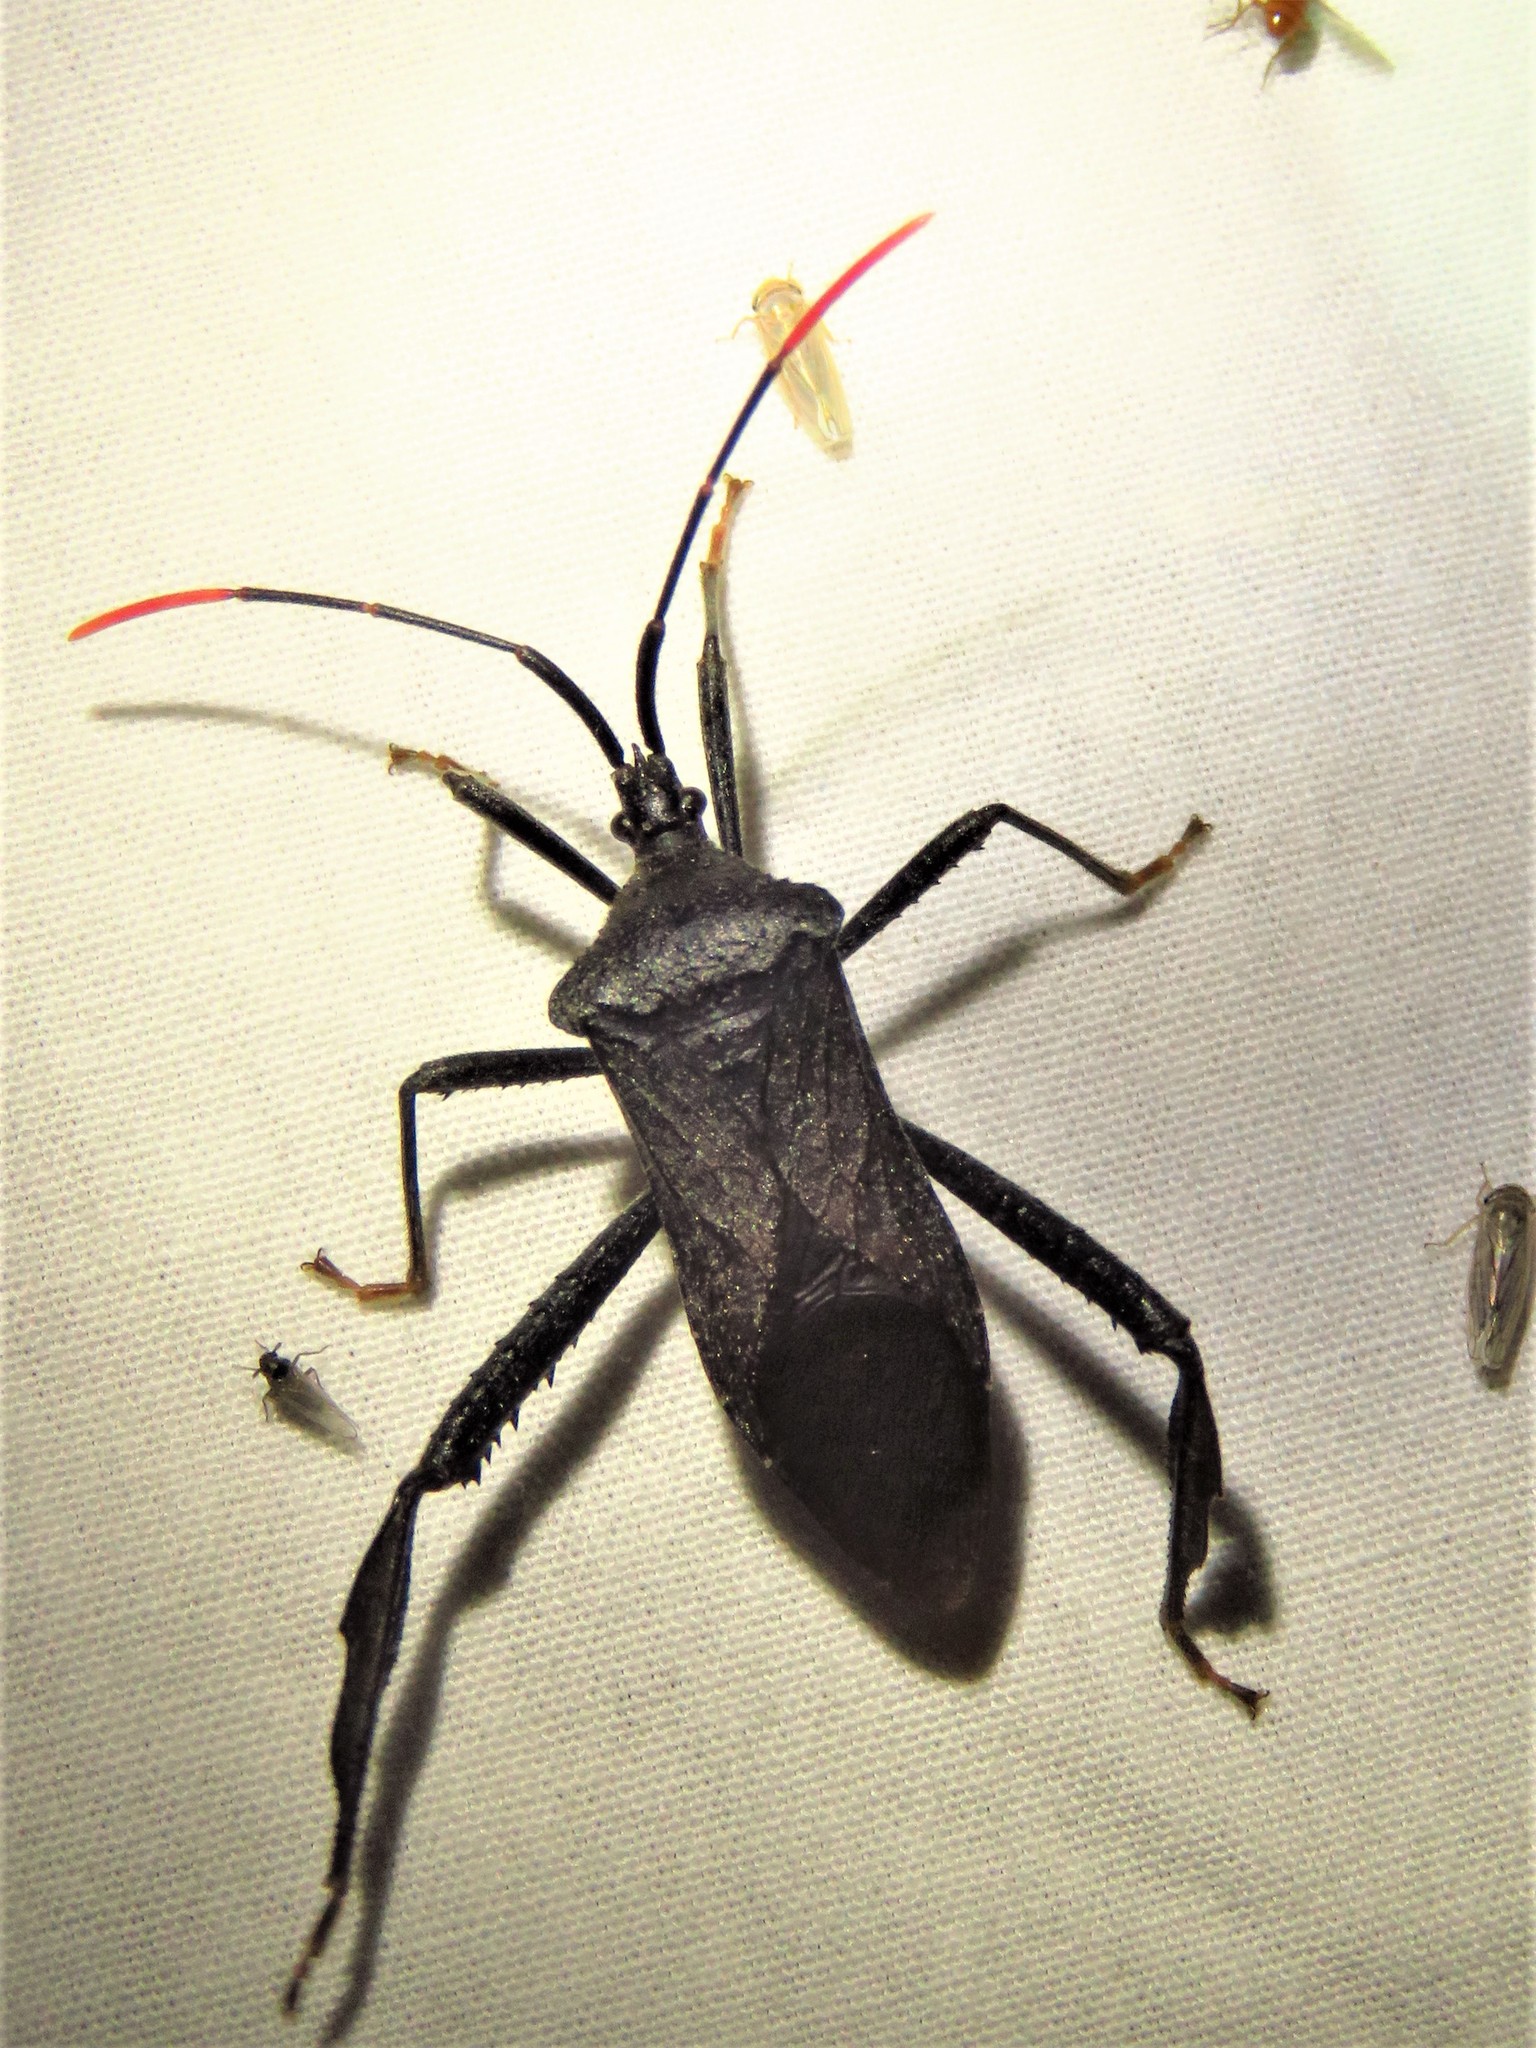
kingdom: Animalia
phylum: Arthropoda
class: Insecta
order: Hemiptera
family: Coreidae
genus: Acanthocephala
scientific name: Acanthocephala terminalis
